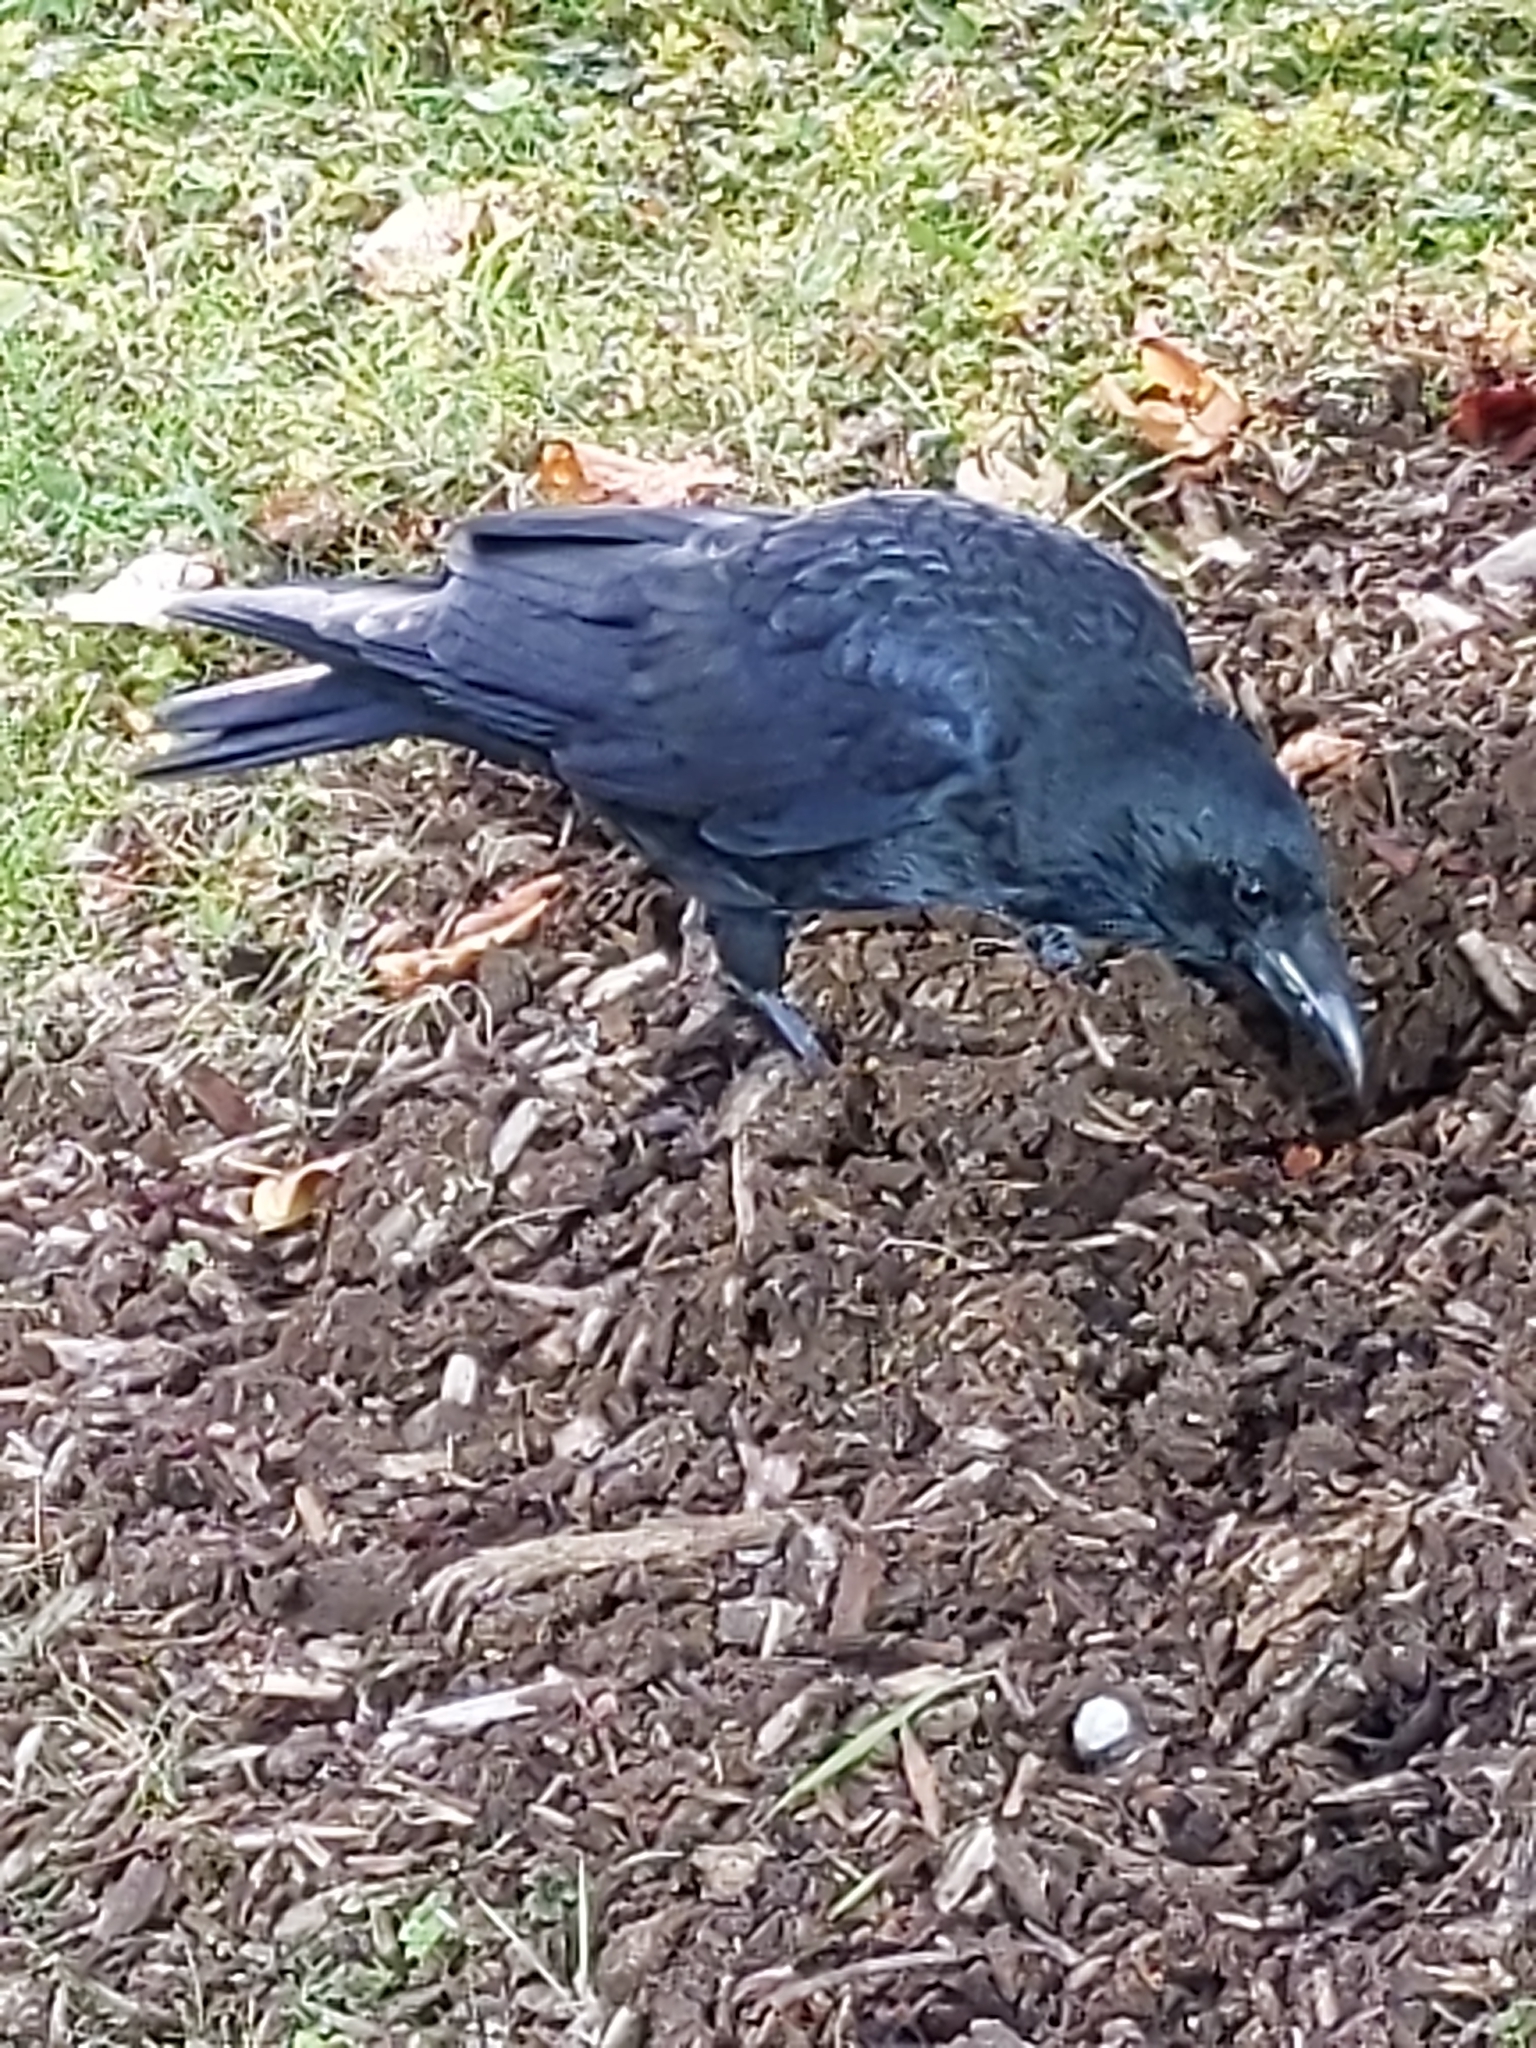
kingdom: Animalia
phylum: Chordata
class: Aves
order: Passeriformes
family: Corvidae
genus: Corvus
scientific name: Corvus corone
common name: Carrion crow
